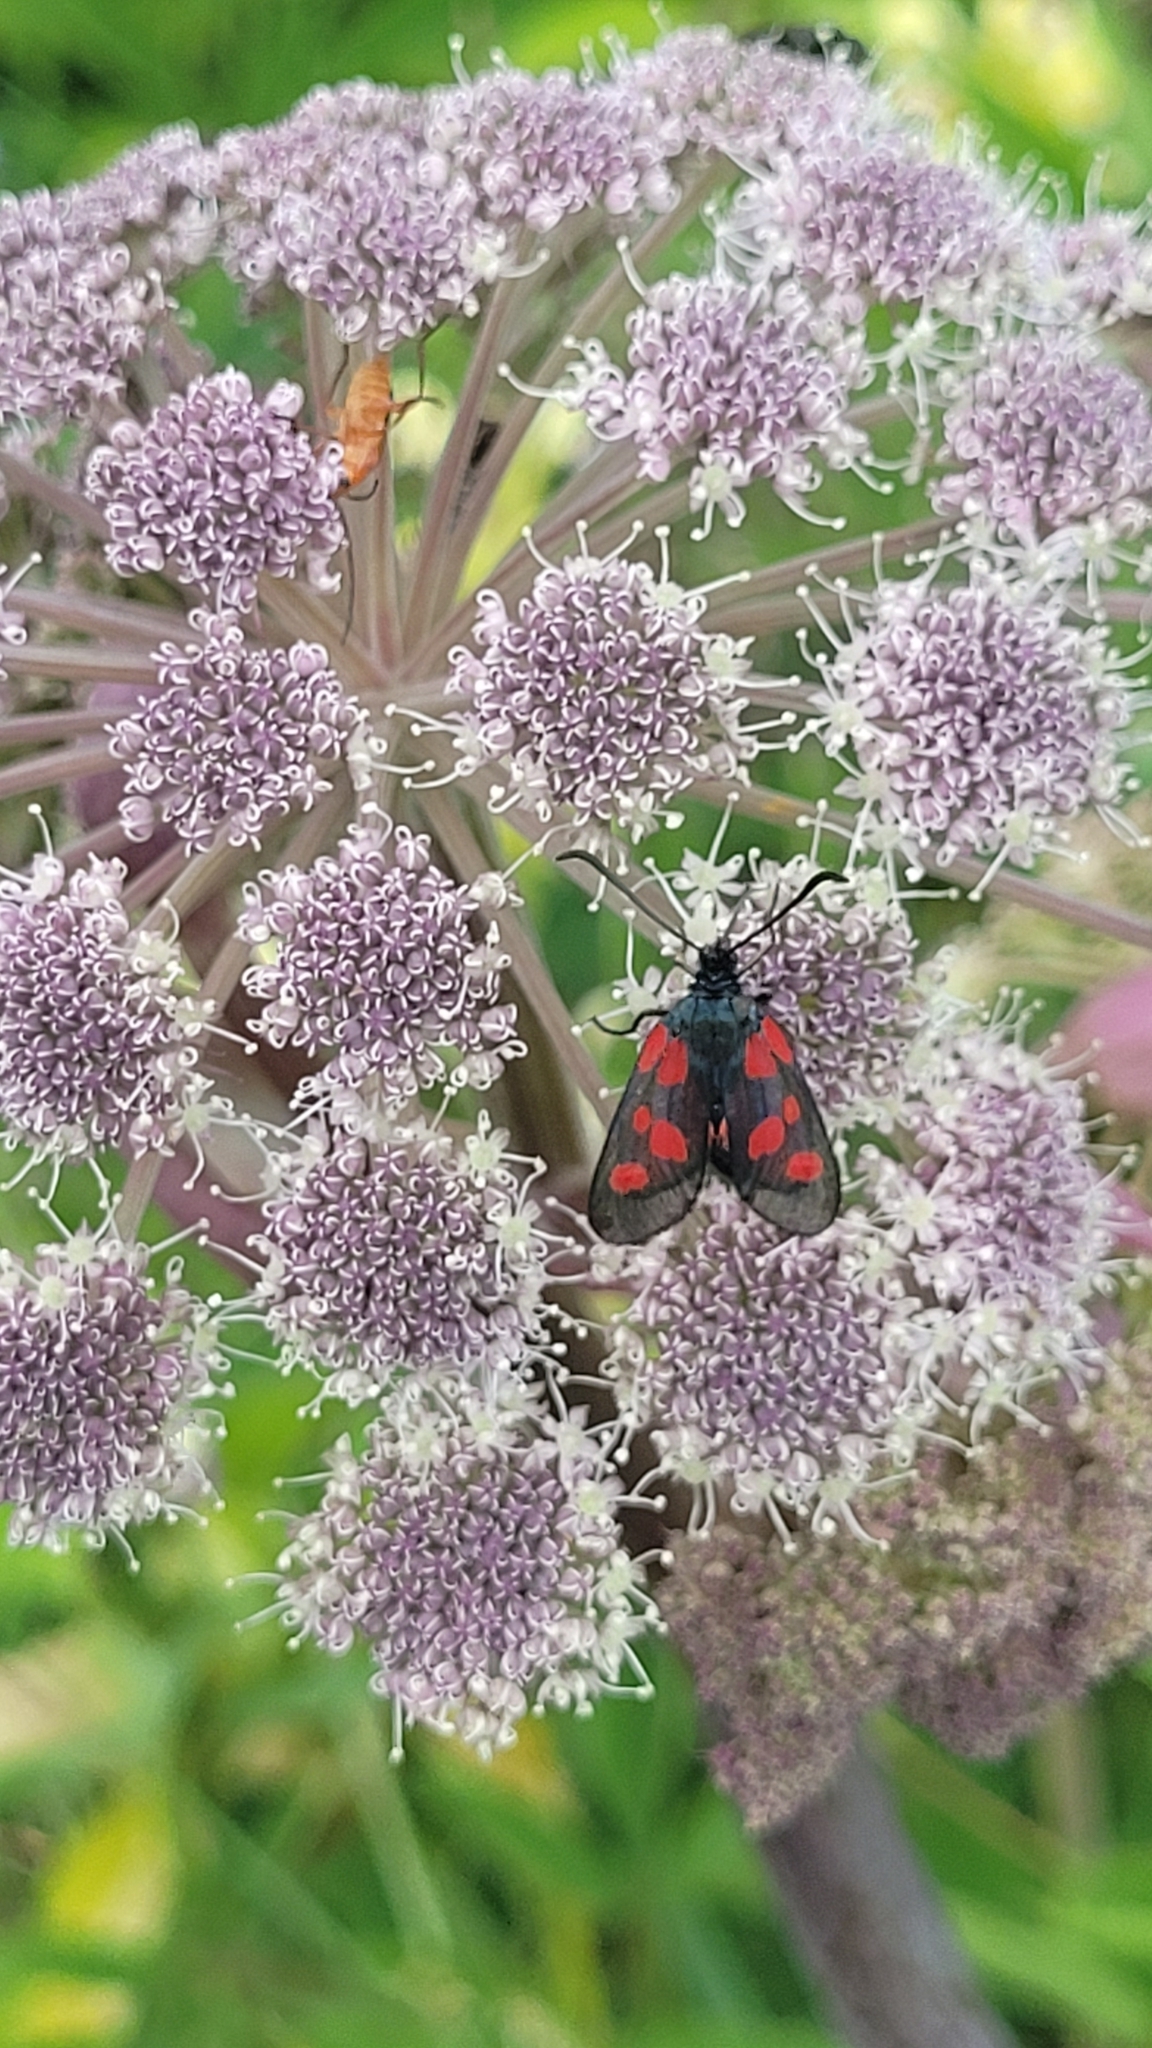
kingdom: Animalia
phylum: Arthropoda
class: Insecta
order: Lepidoptera
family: Zygaenidae
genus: Zygaena
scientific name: Zygaena viciae
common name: New forest burnet
